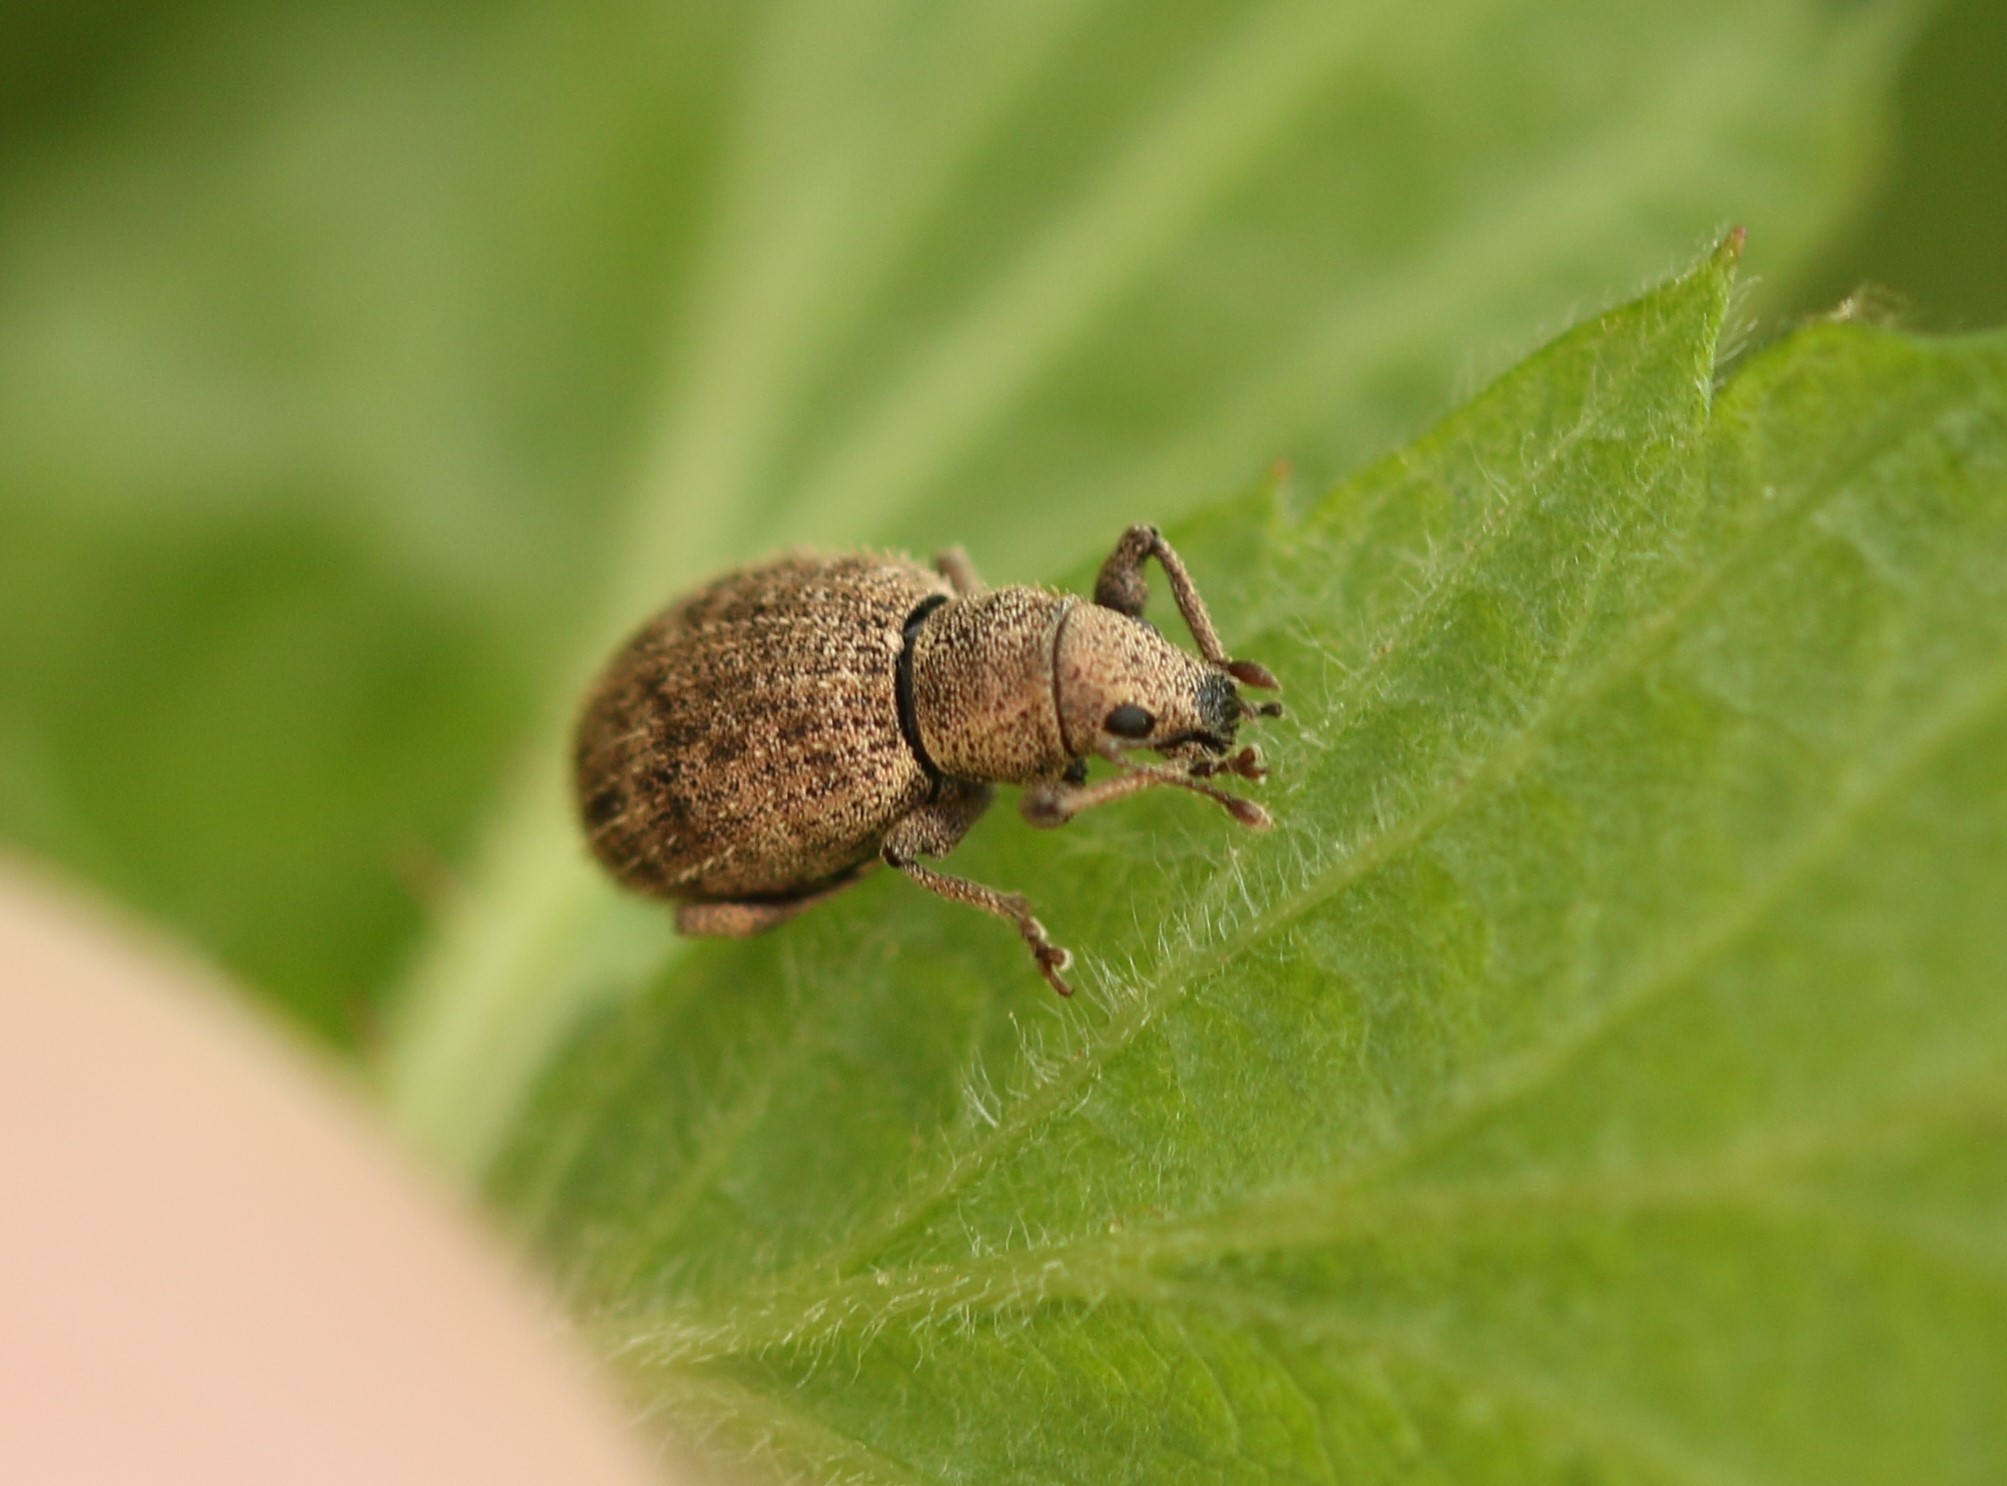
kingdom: Animalia
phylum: Arthropoda
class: Insecta
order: Coleoptera
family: Curculionidae
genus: Sciaphilus
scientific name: Sciaphilus asperatus
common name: Weevil
